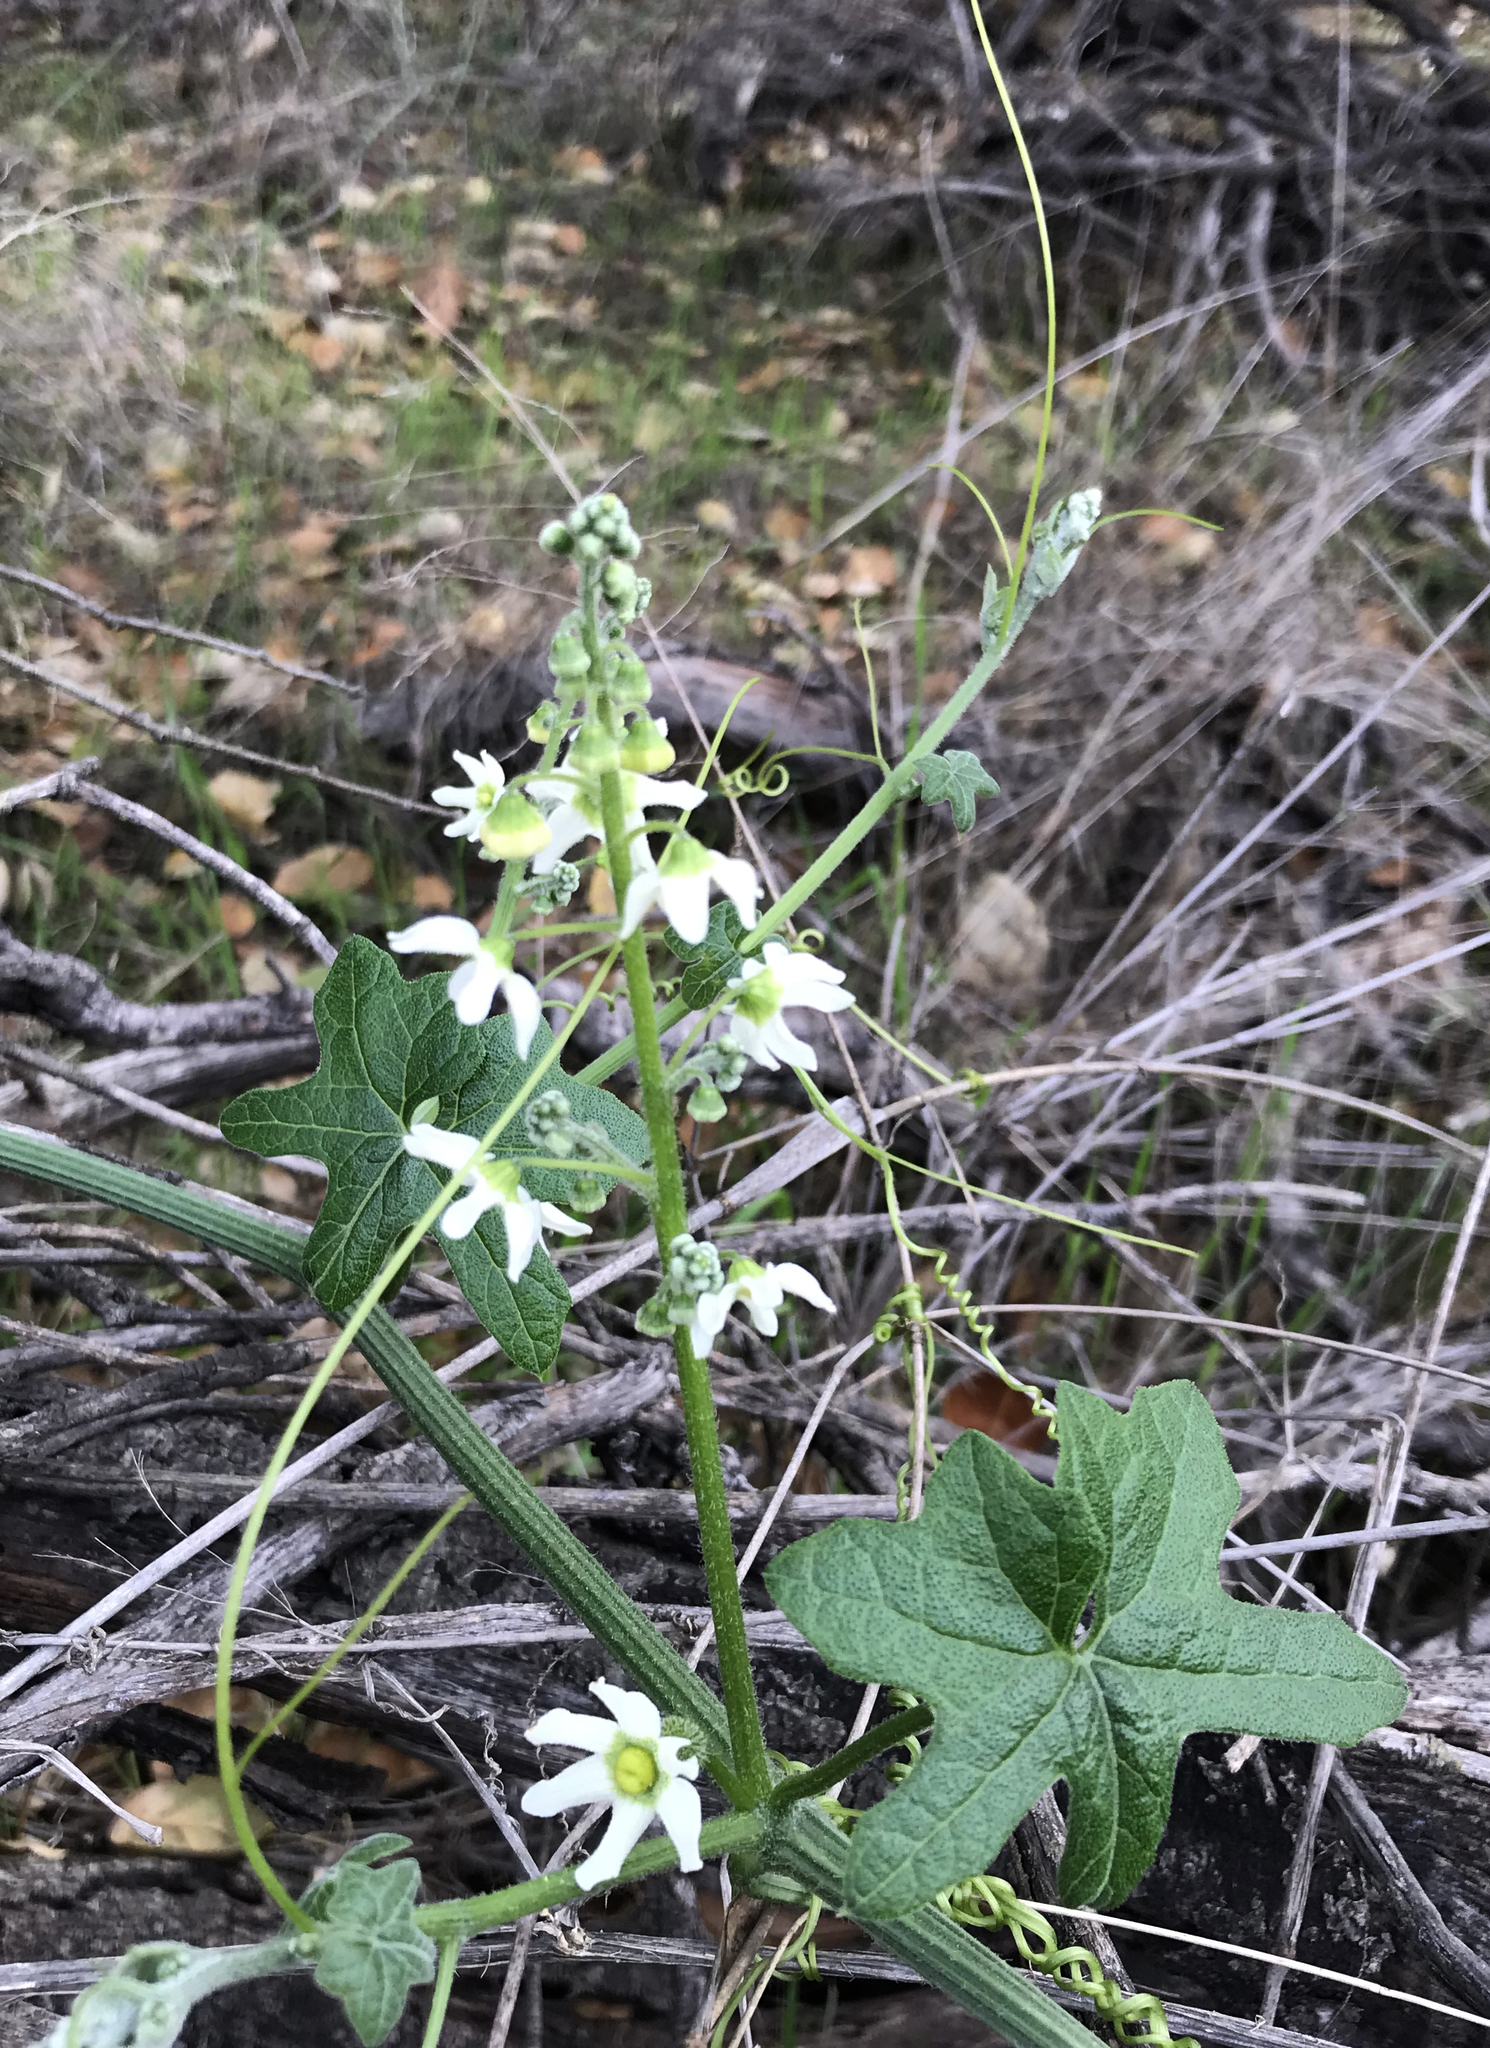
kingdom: Plantae
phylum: Tracheophyta
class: Magnoliopsida
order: Cucurbitales
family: Cucurbitaceae
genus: Marah
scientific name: Marah macrocarpa
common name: Cucamonga manroot
